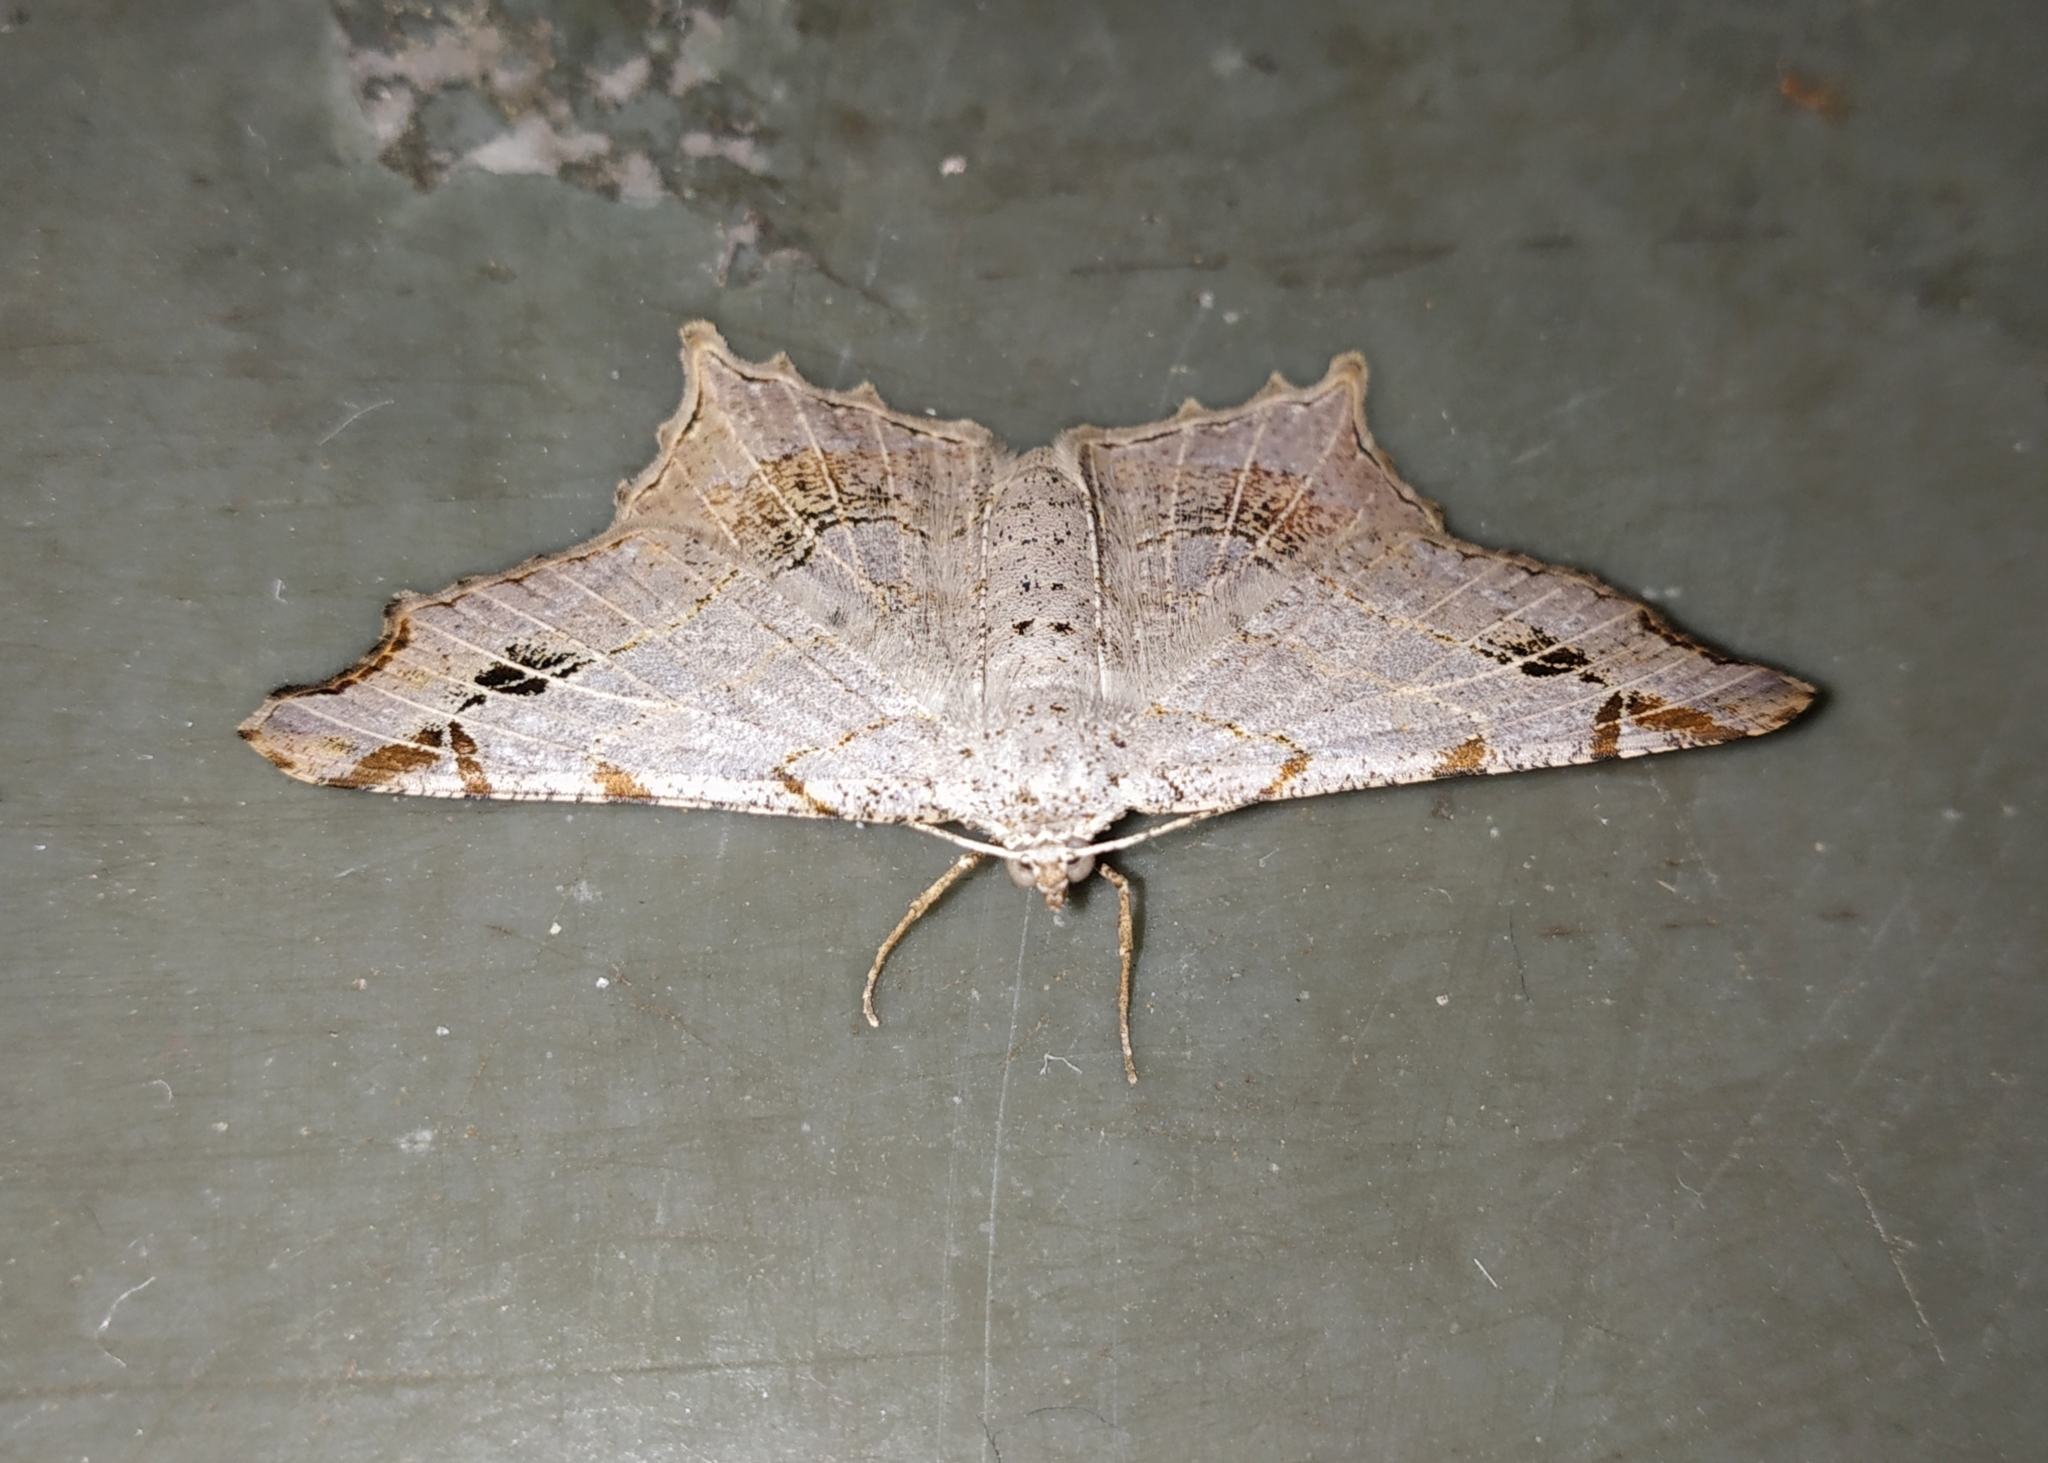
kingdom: Animalia
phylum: Arthropoda
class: Insecta
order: Lepidoptera
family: Geometridae
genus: Chiasmia
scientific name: Chiasmia emersaria
